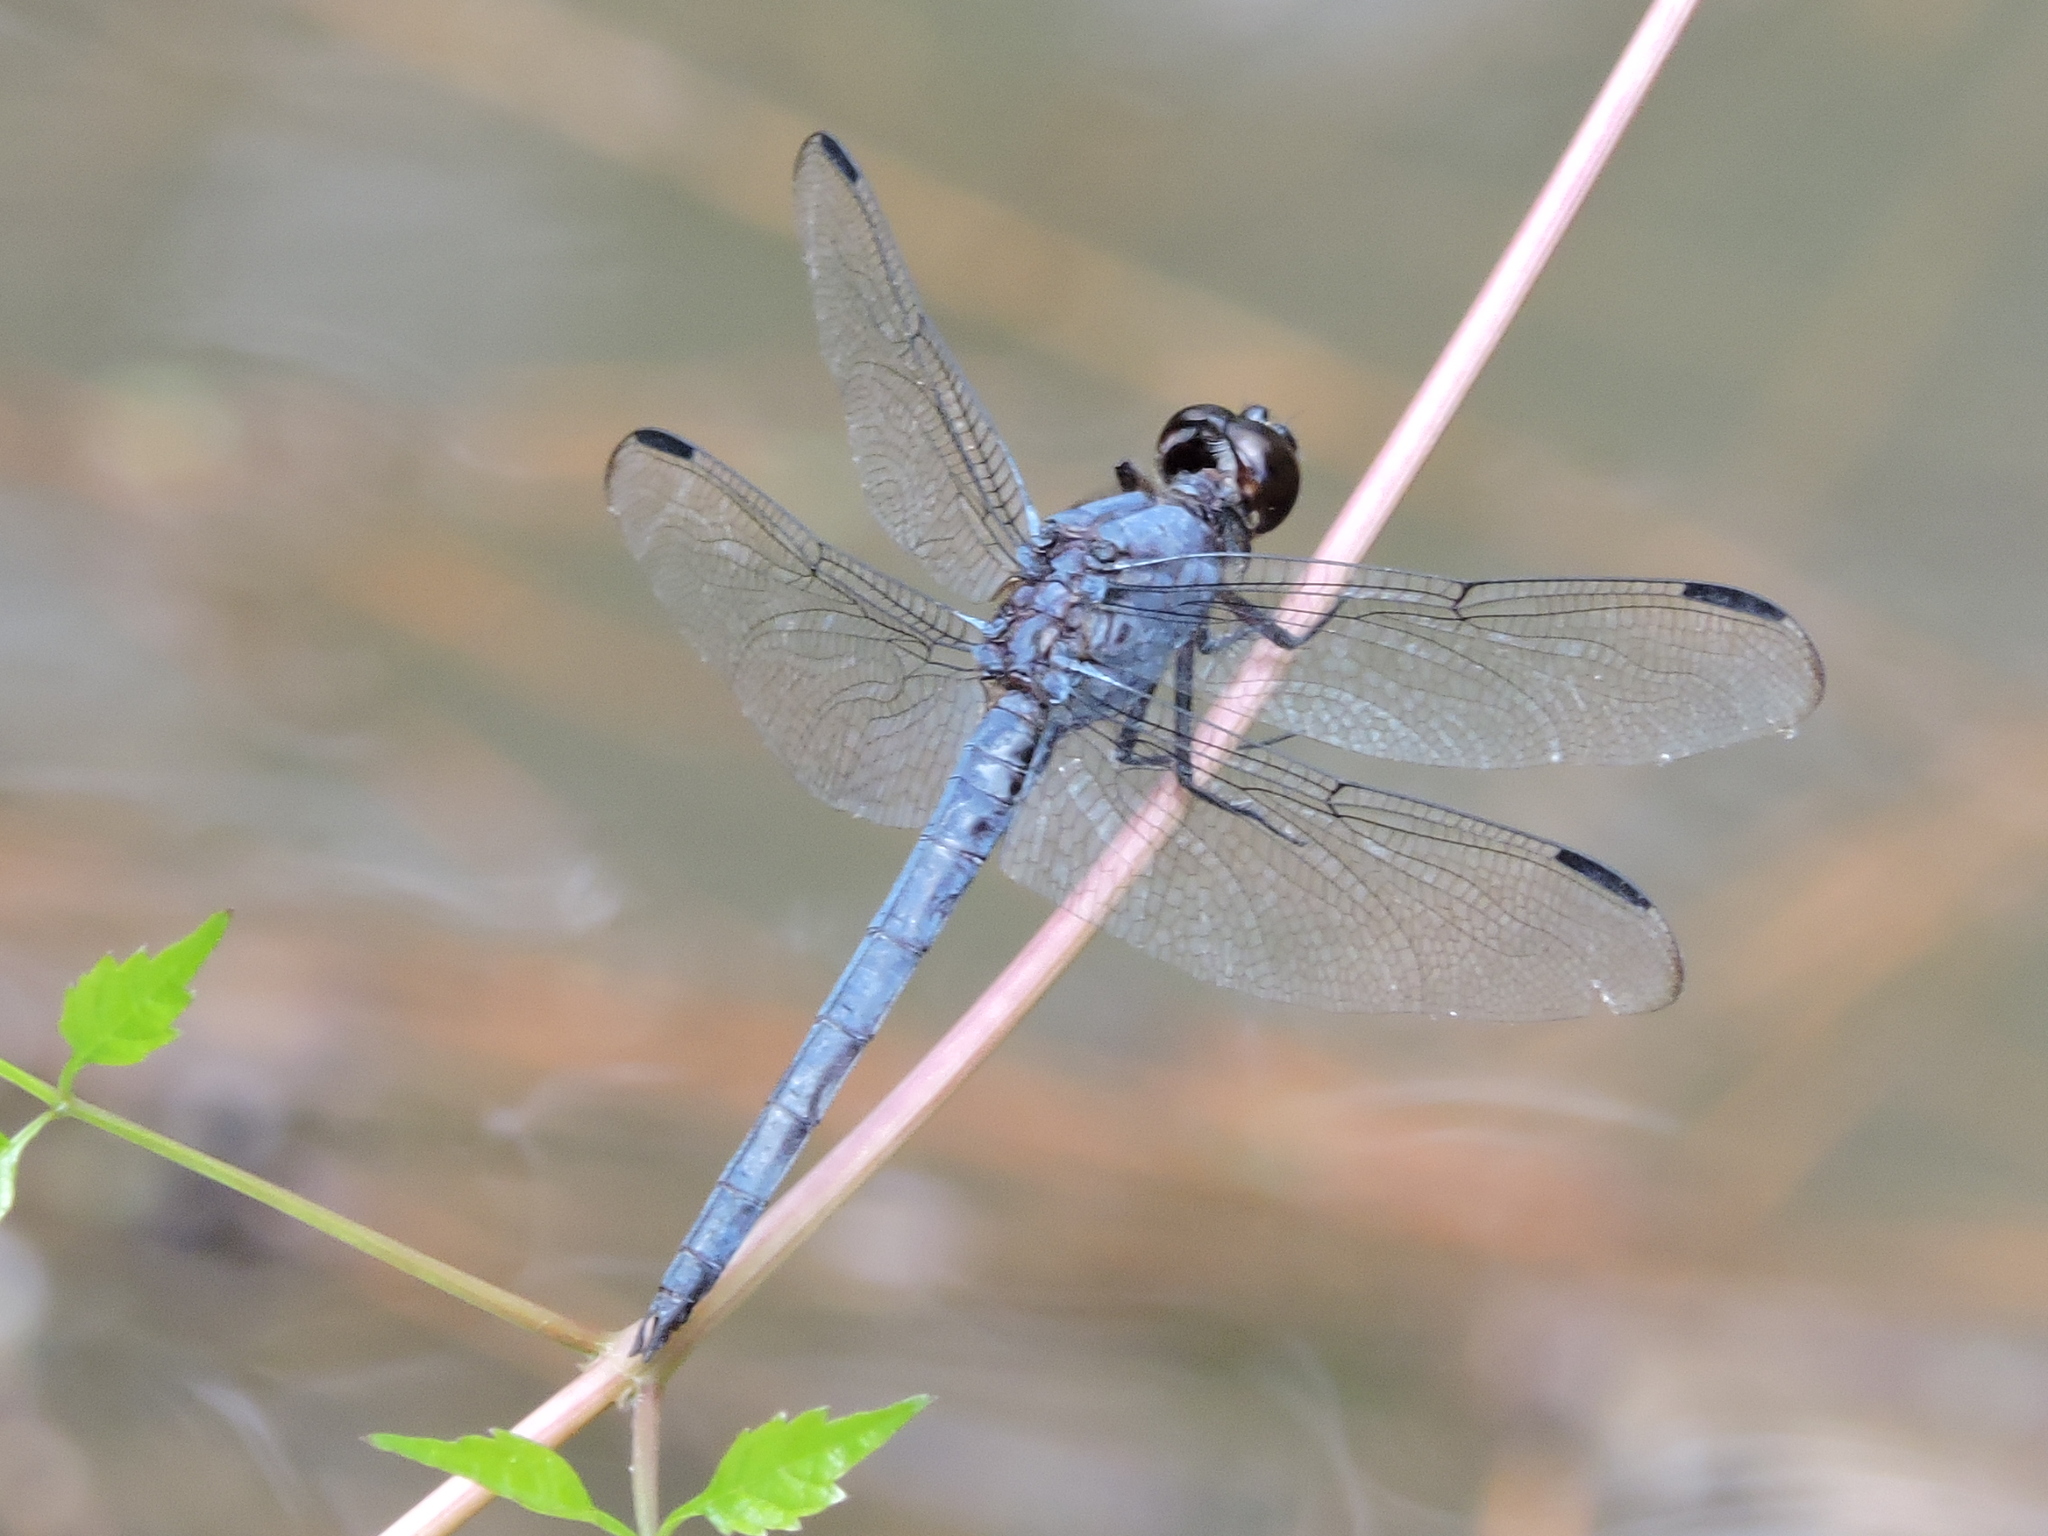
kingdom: Animalia
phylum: Arthropoda
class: Insecta
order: Odonata
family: Libellulidae
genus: Libellula
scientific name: Libellula incesta
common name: Slaty skimmer
